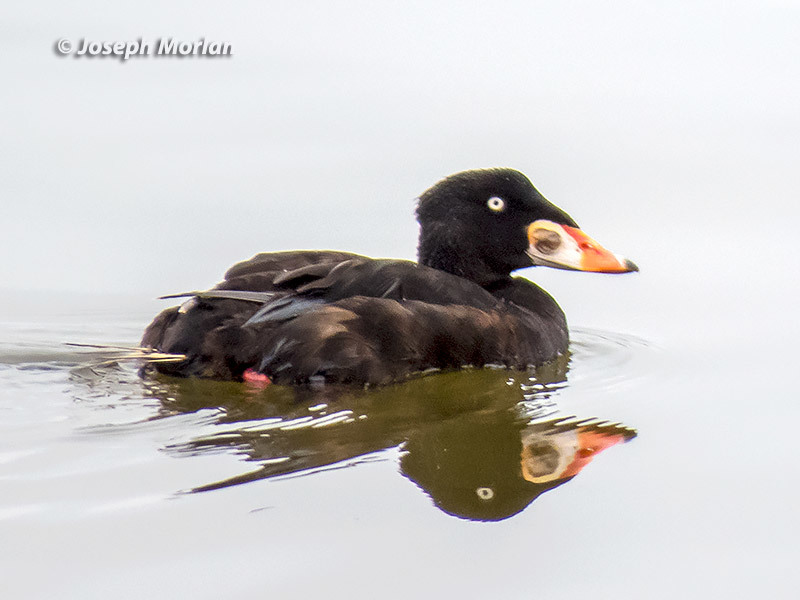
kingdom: Animalia
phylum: Chordata
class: Aves
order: Anseriformes
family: Anatidae
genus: Melanitta
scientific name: Melanitta perspicillata
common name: Surf scoter
